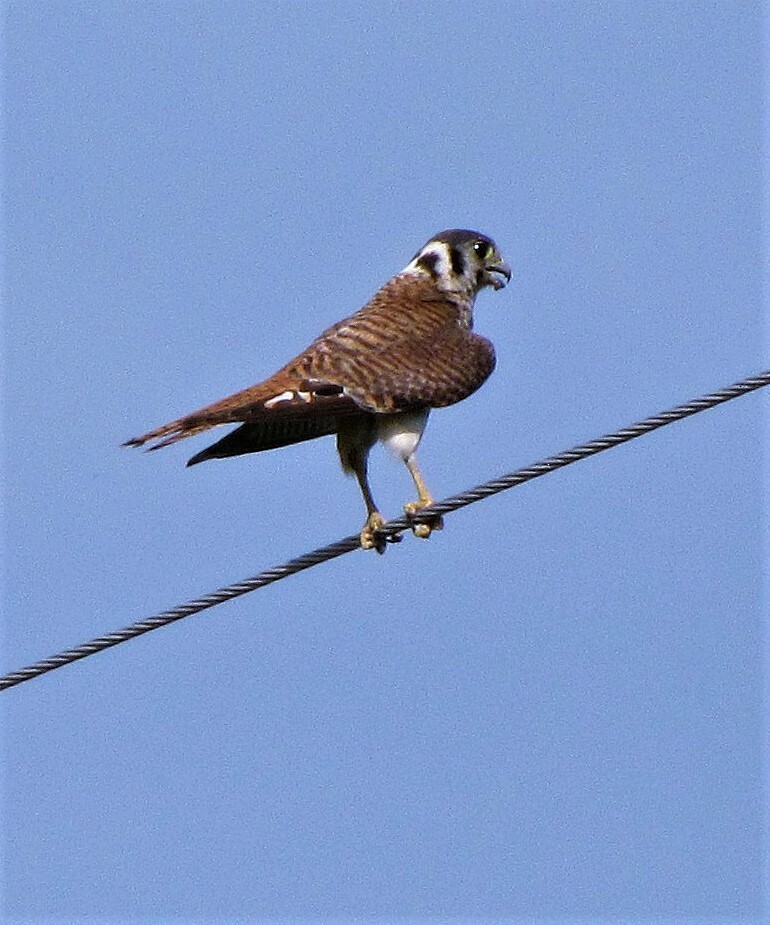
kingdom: Animalia
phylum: Chordata
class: Aves
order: Falconiformes
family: Falconidae
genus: Falco
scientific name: Falco sparverius
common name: American kestrel
